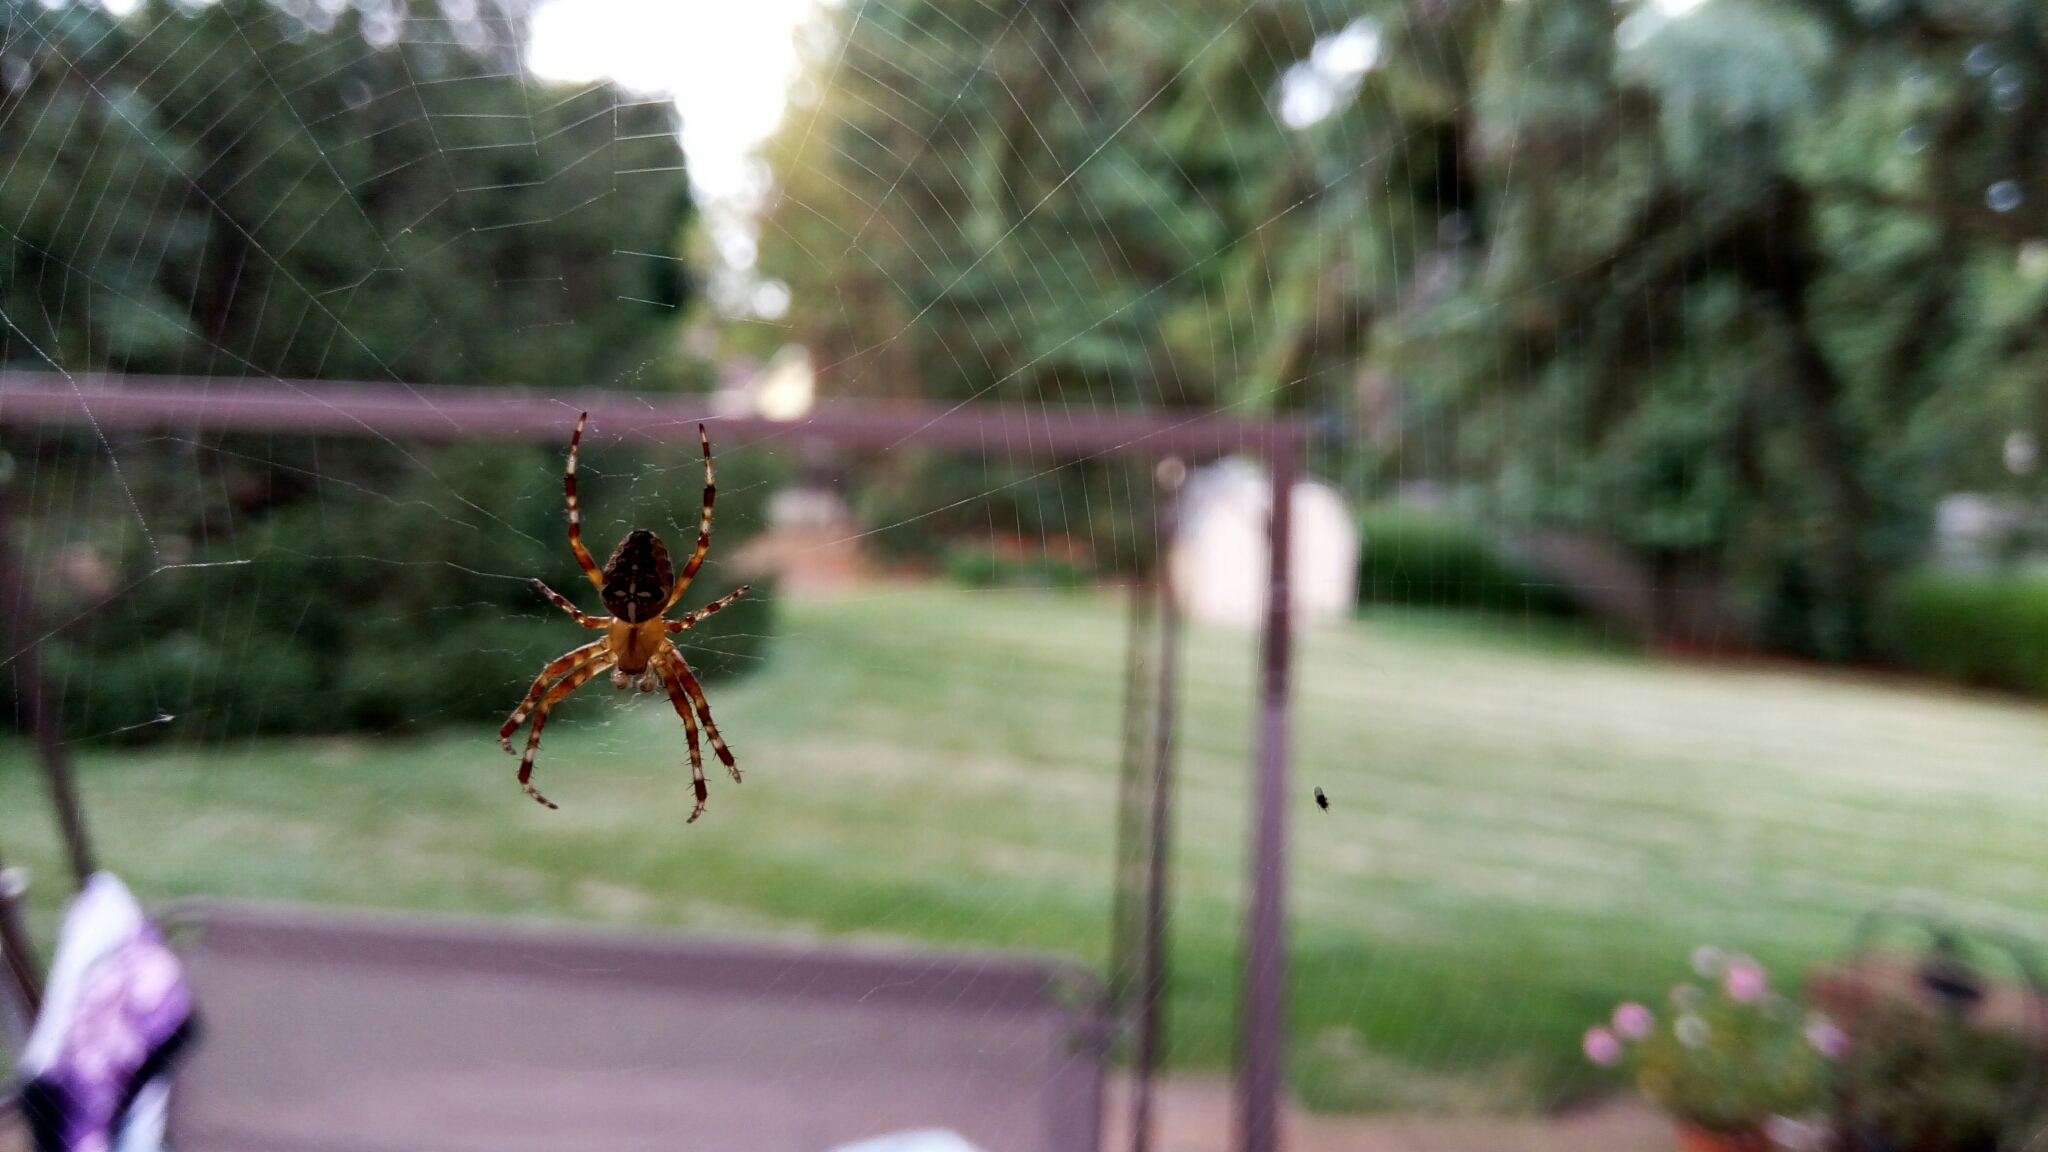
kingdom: Animalia
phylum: Arthropoda
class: Arachnida
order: Araneae
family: Araneidae
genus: Araneus
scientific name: Araneus diadematus
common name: Cross orbweaver
